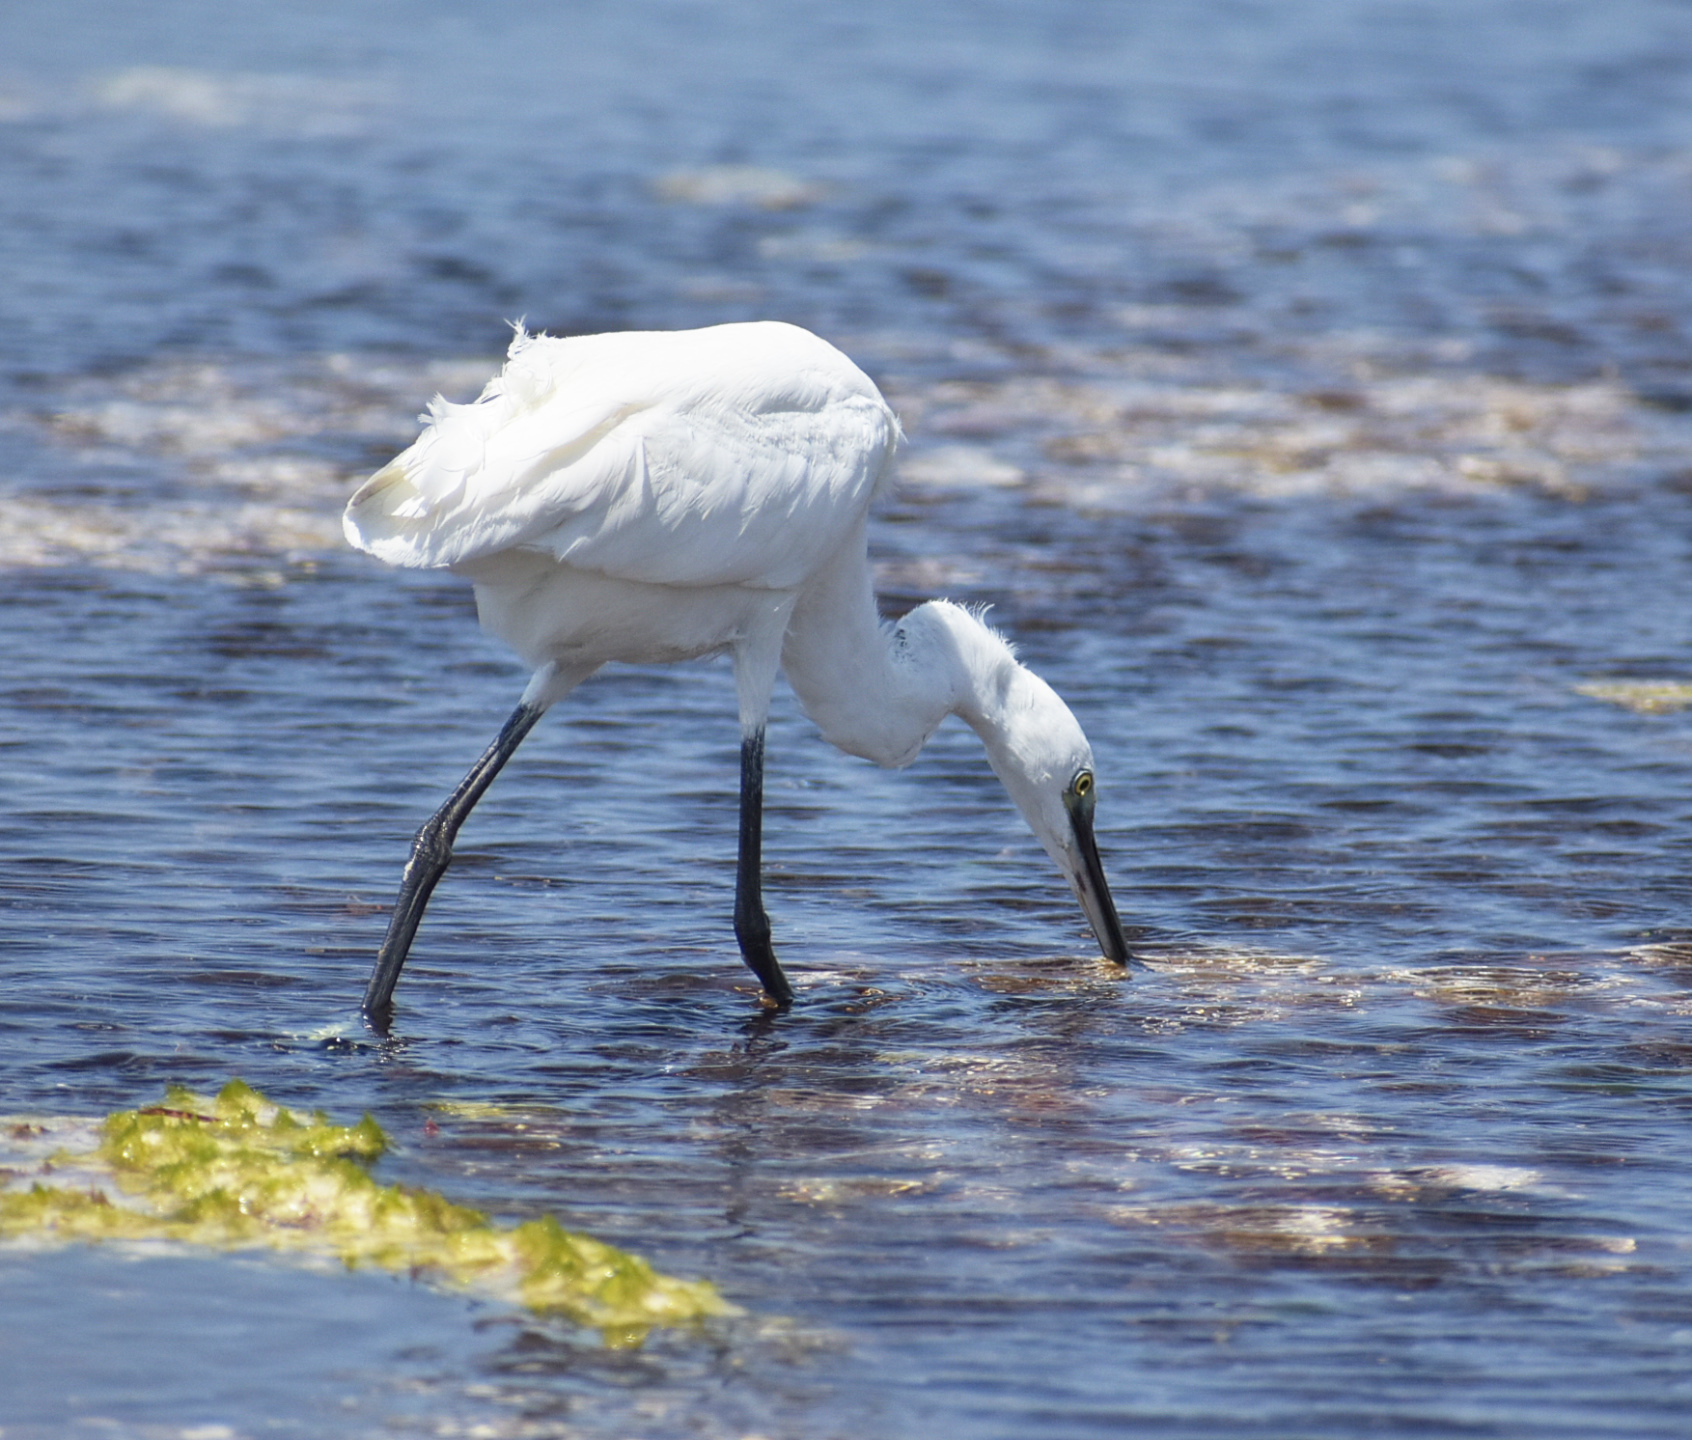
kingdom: Animalia
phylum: Chordata
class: Aves
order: Pelecaniformes
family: Ardeidae
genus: Egretta
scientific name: Egretta garzetta
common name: Little egret
